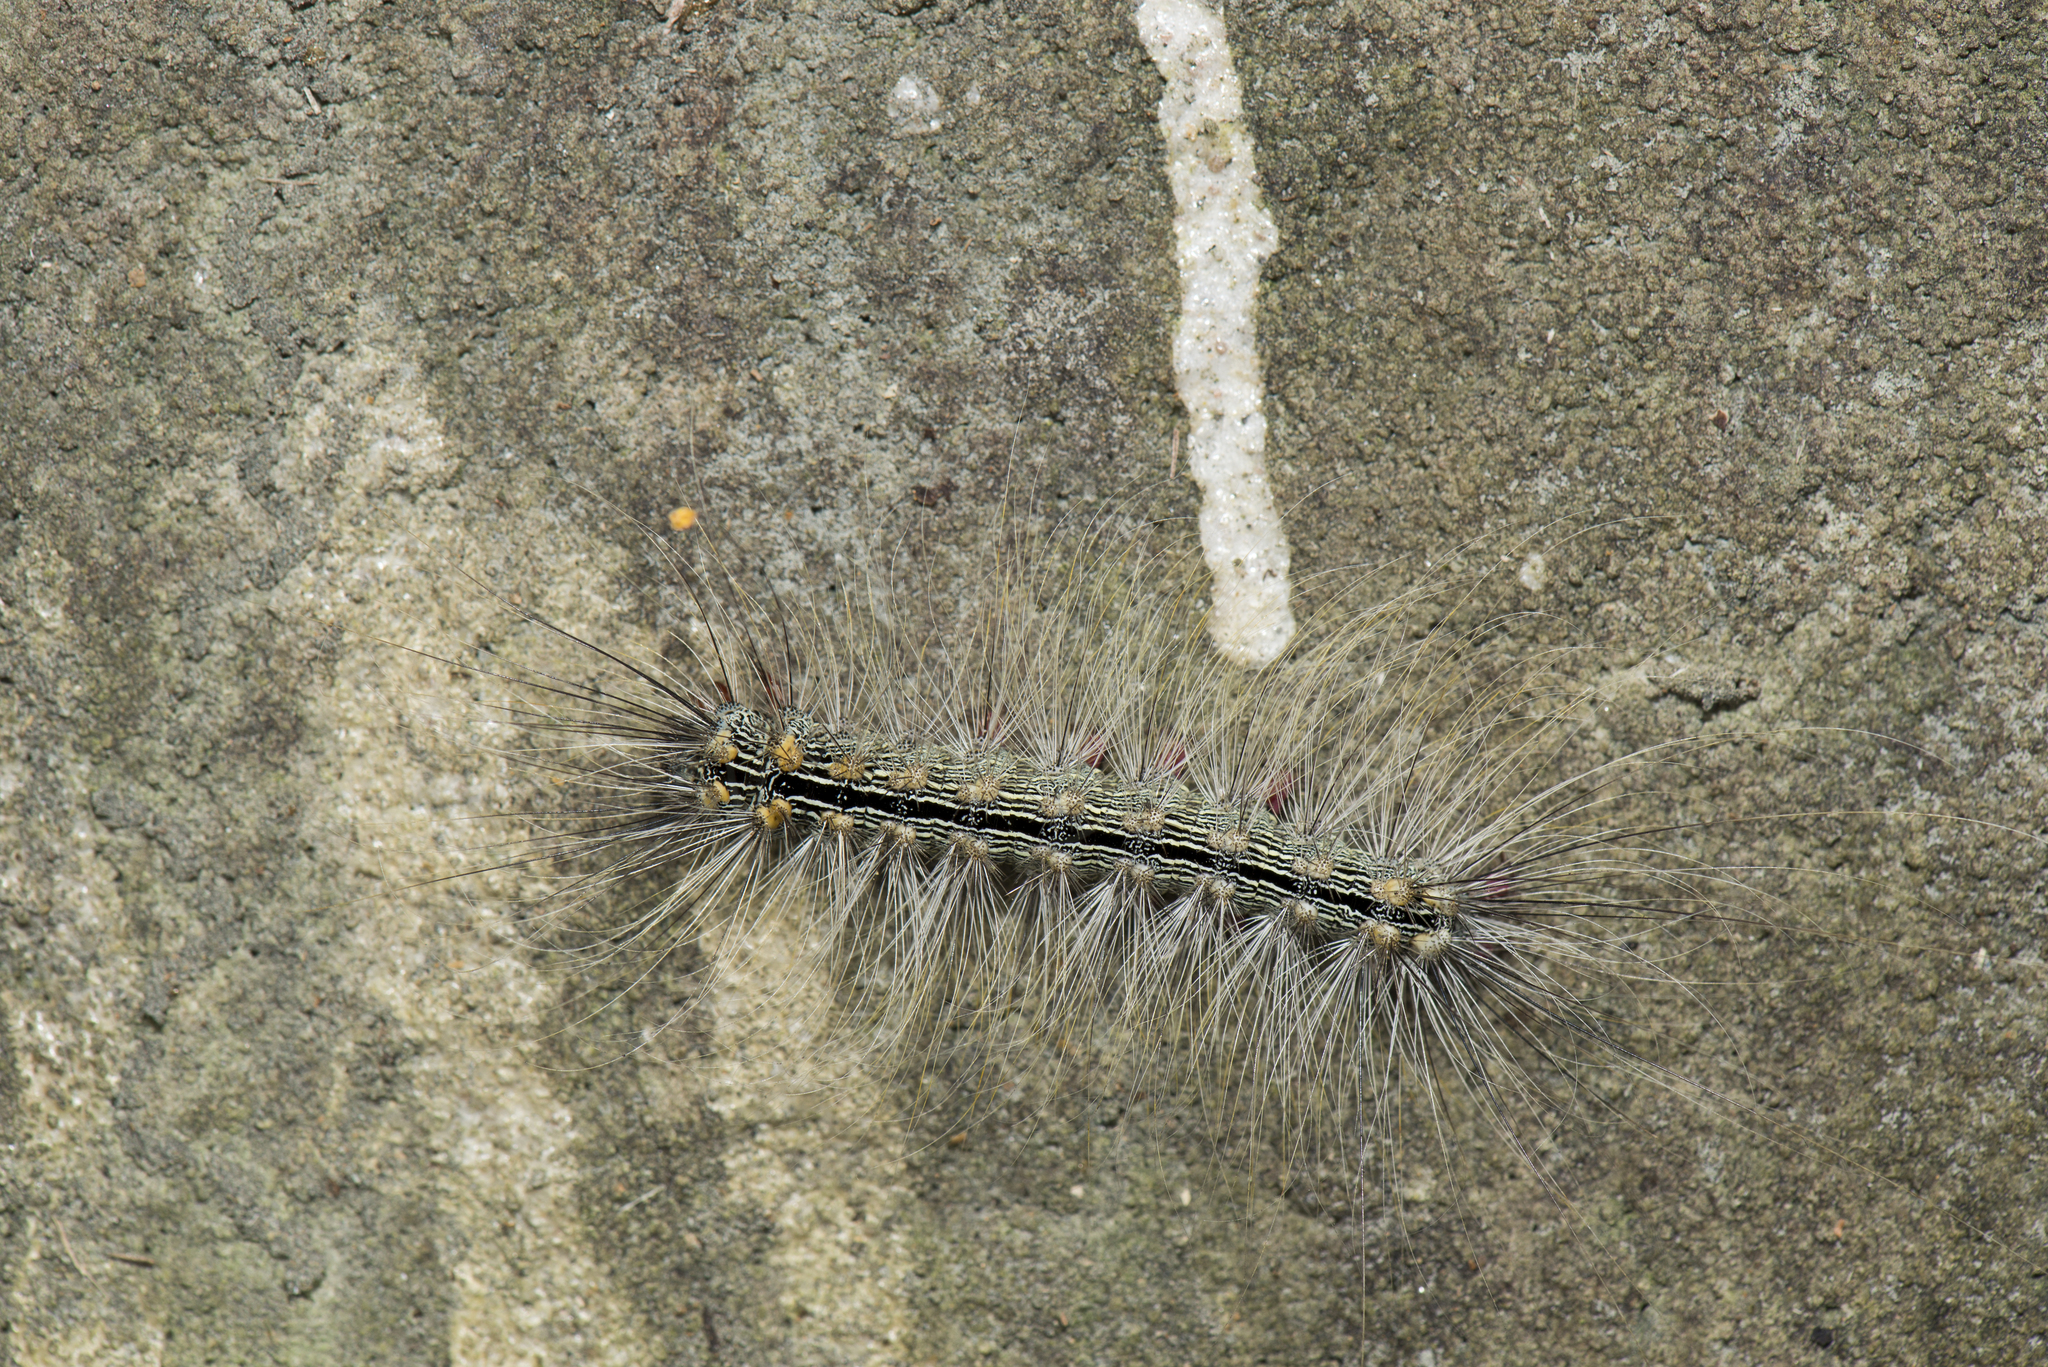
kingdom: Animalia
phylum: Arthropoda
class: Insecta
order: Lepidoptera
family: Erebidae
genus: Chrysaeglia
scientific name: Chrysaeglia magnifica
